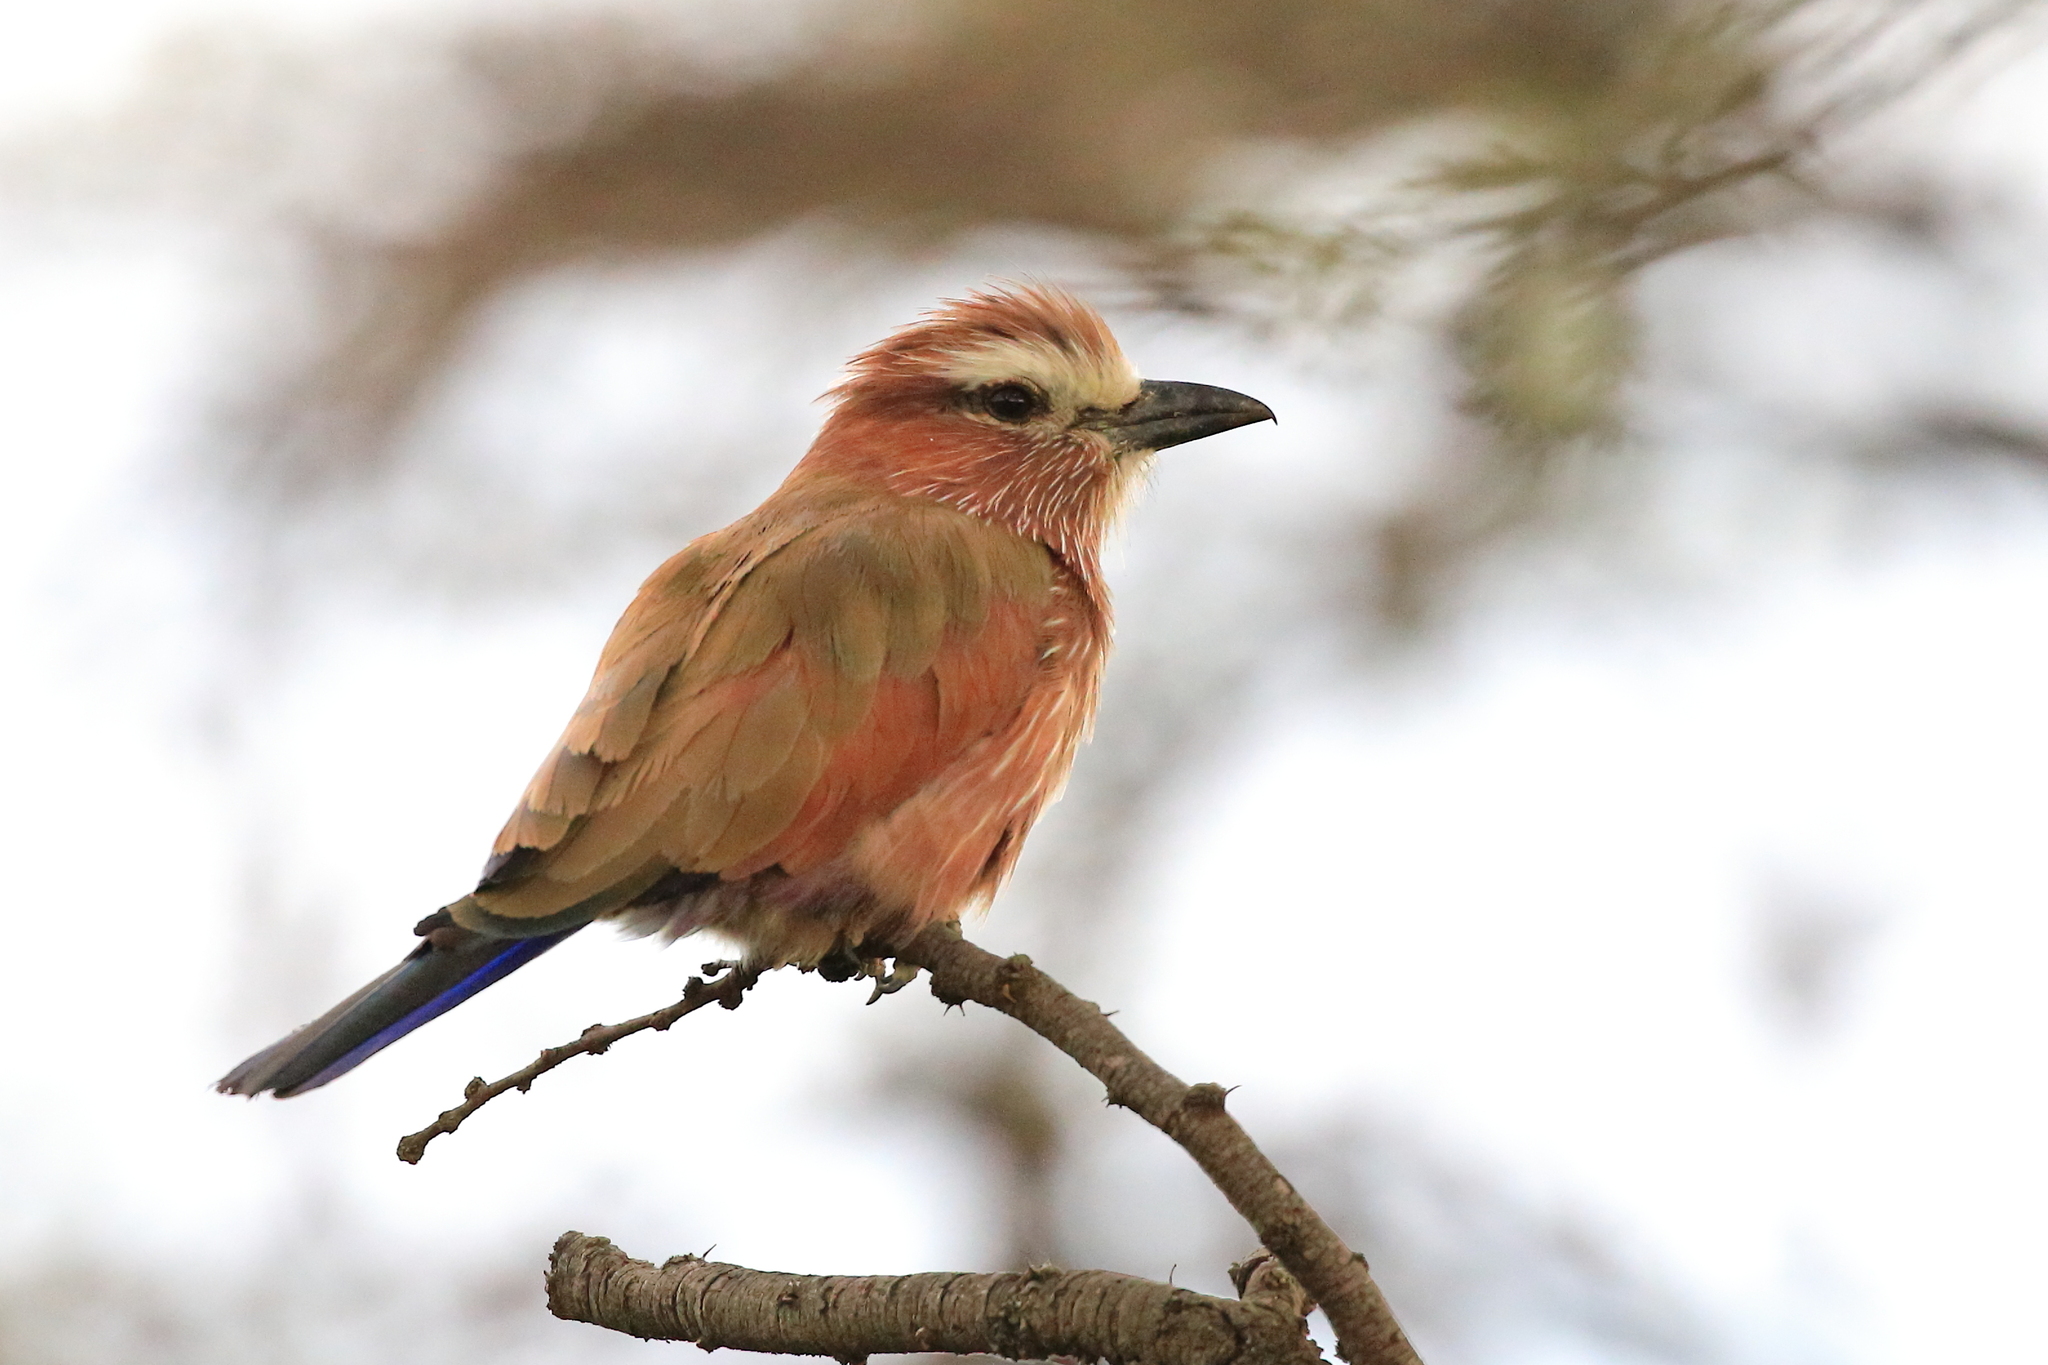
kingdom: Animalia
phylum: Chordata
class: Aves
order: Coraciiformes
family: Coraciidae
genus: Coracias
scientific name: Coracias naevius
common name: Purple roller
